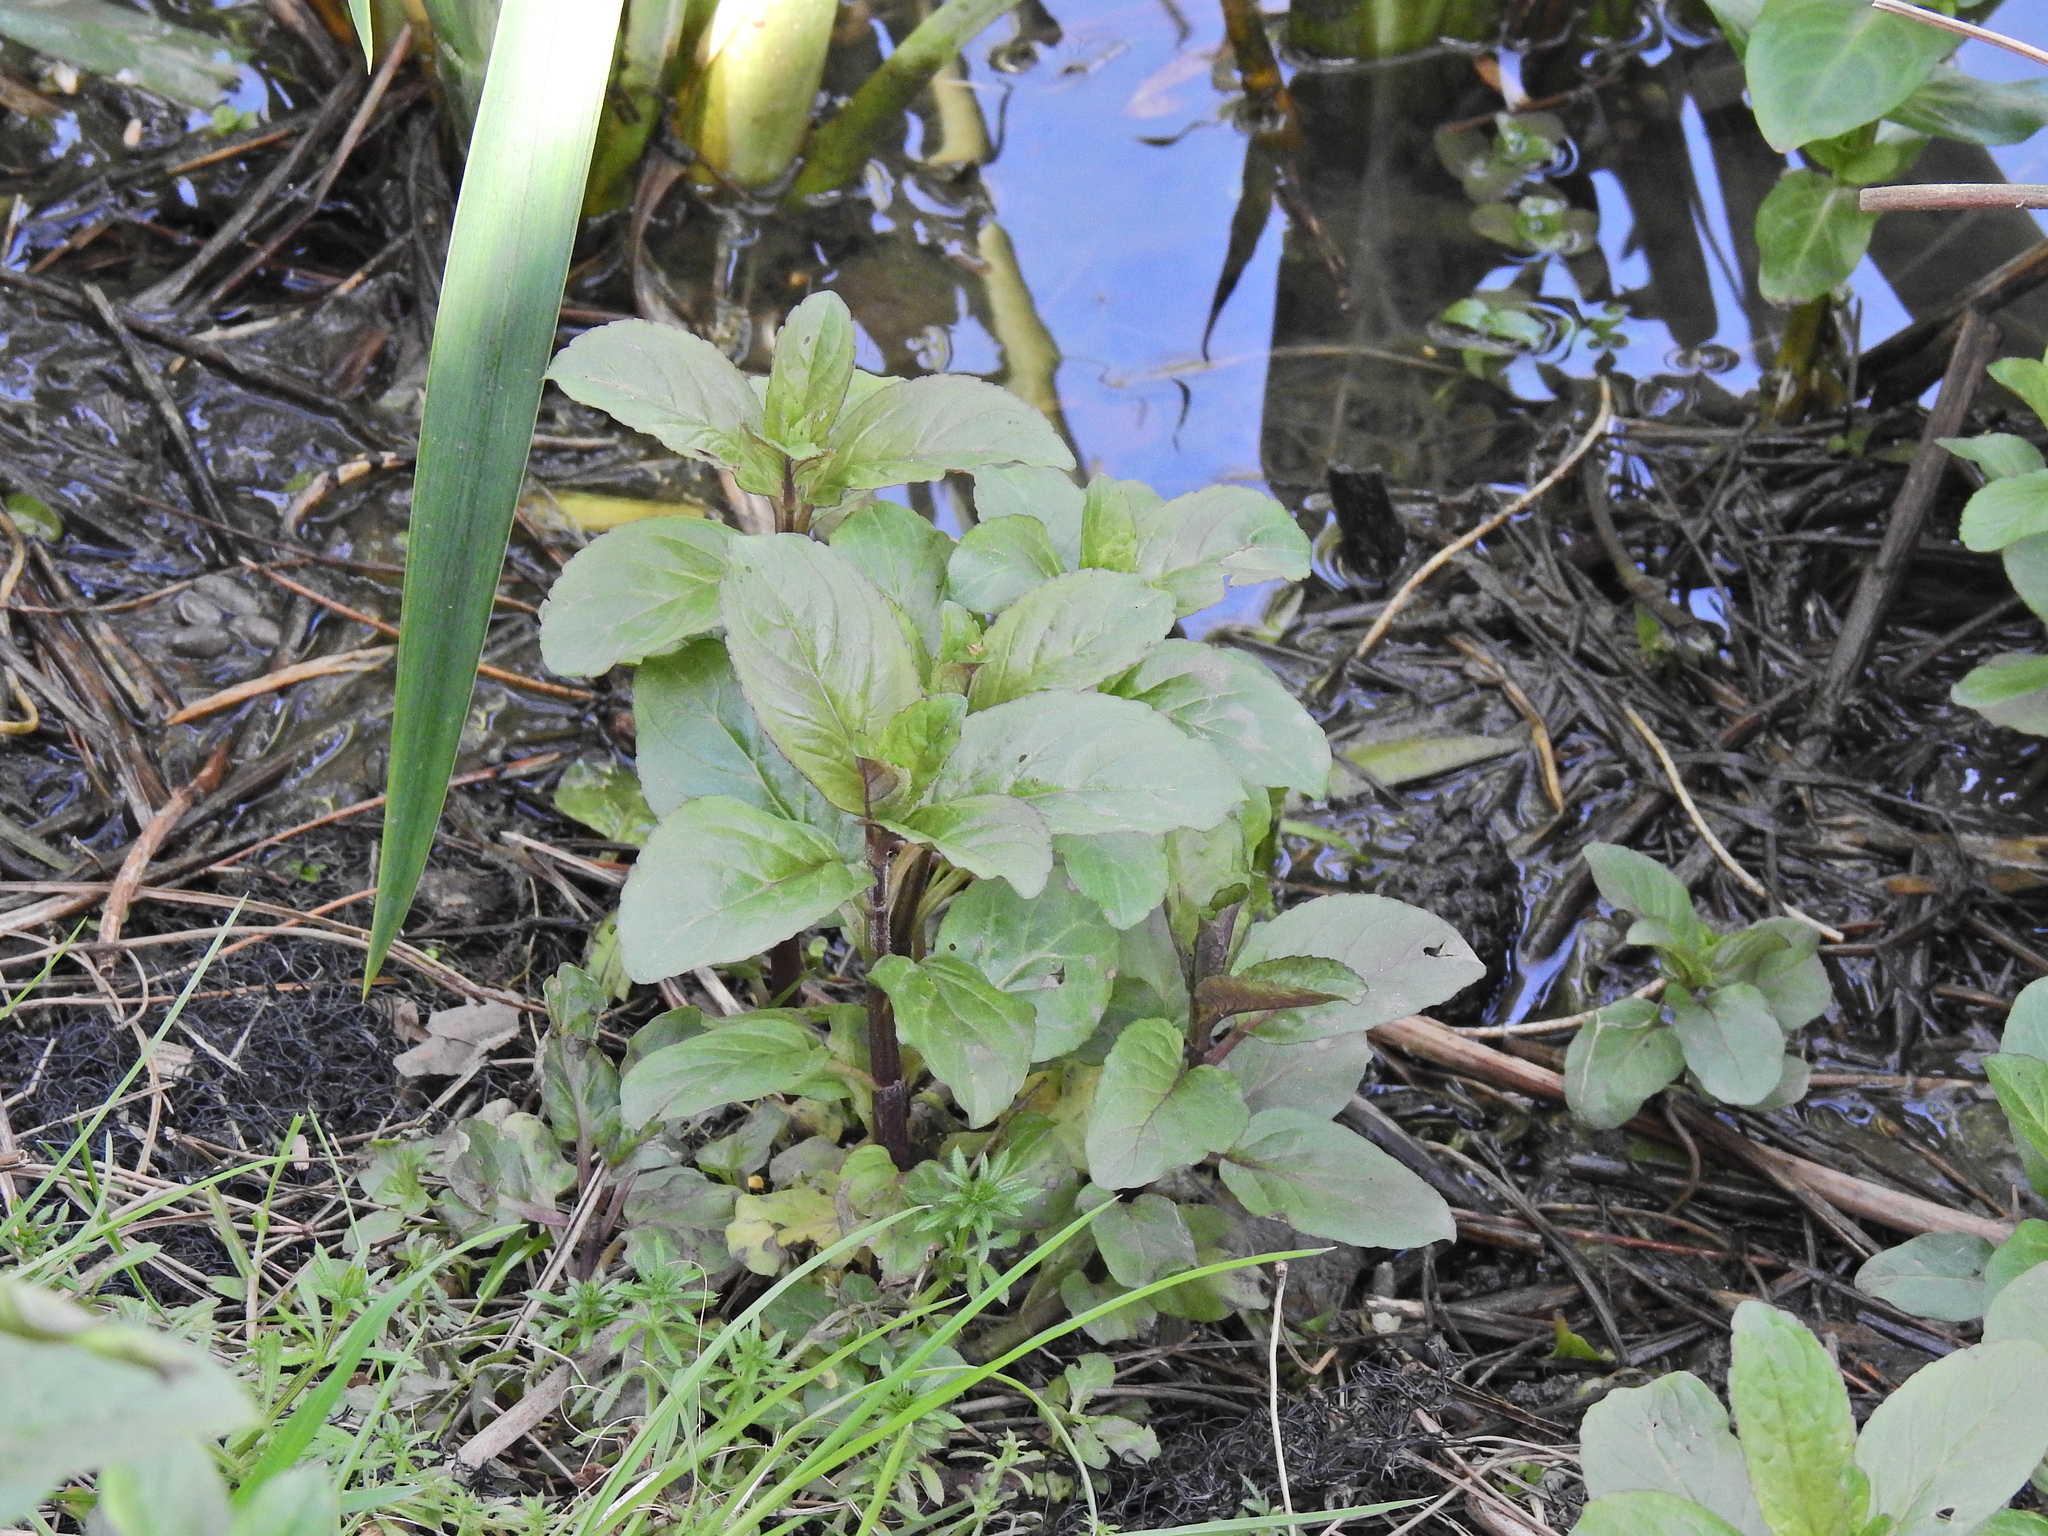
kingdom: Plantae
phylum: Tracheophyta
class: Magnoliopsida
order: Lamiales
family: Lamiaceae
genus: Mentha
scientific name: Mentha aquatica
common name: Water mint
